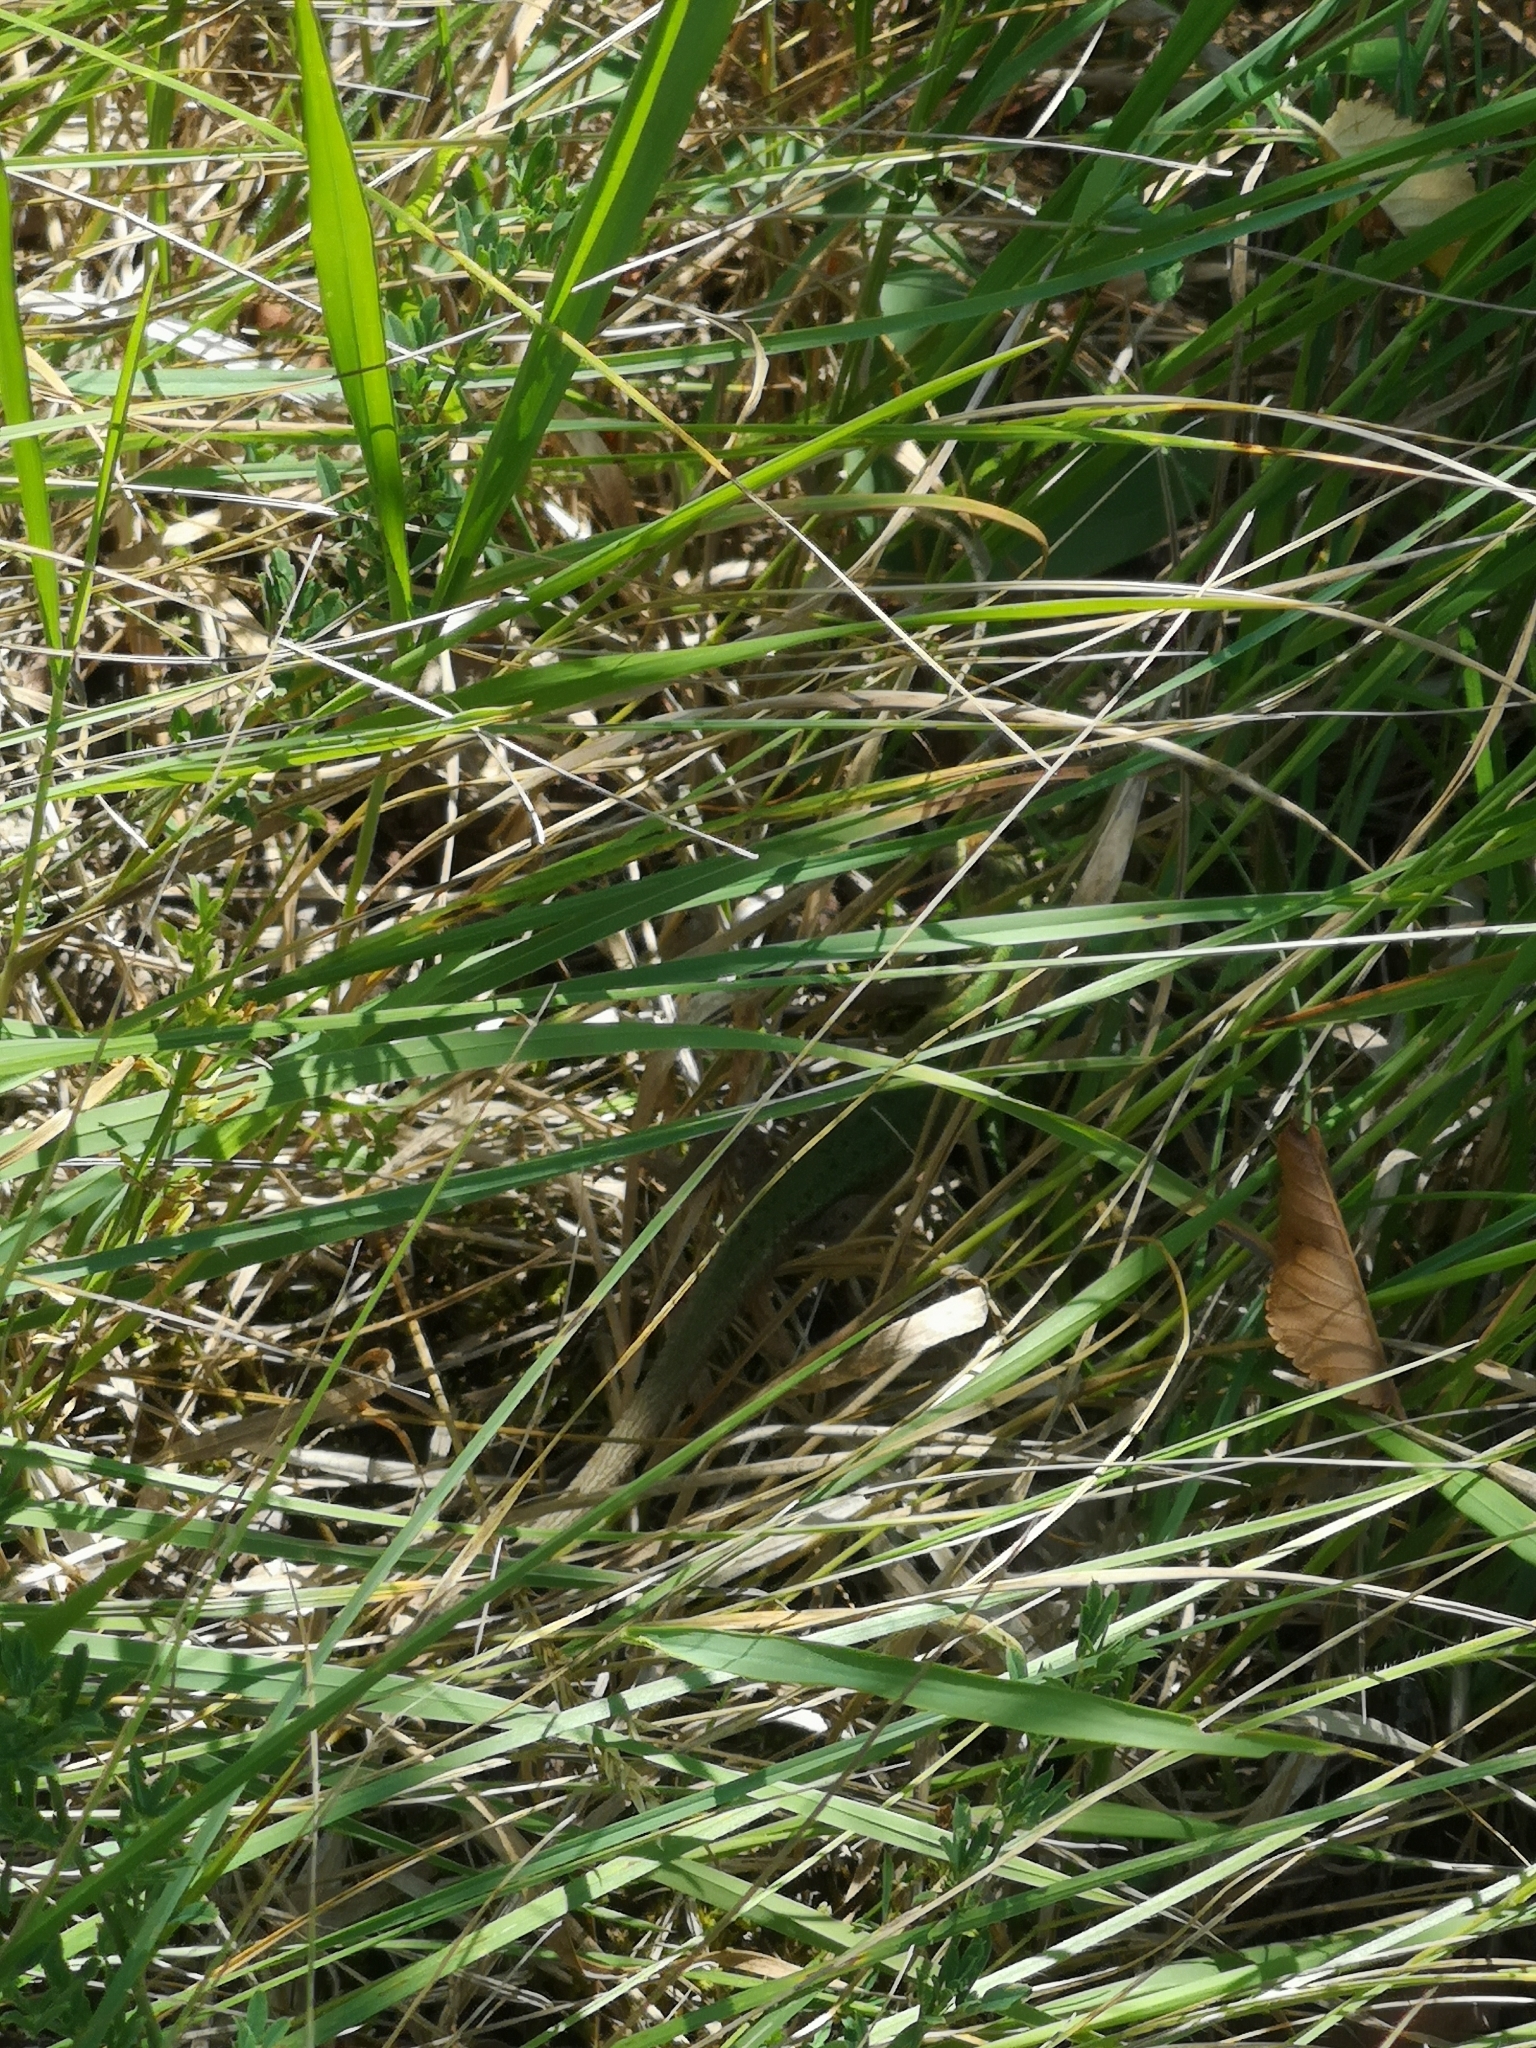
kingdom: Animalia
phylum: Chordata
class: Squamata
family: Lacertidae
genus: Lacerta
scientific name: Lacerta bilineata
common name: Western green lizard
